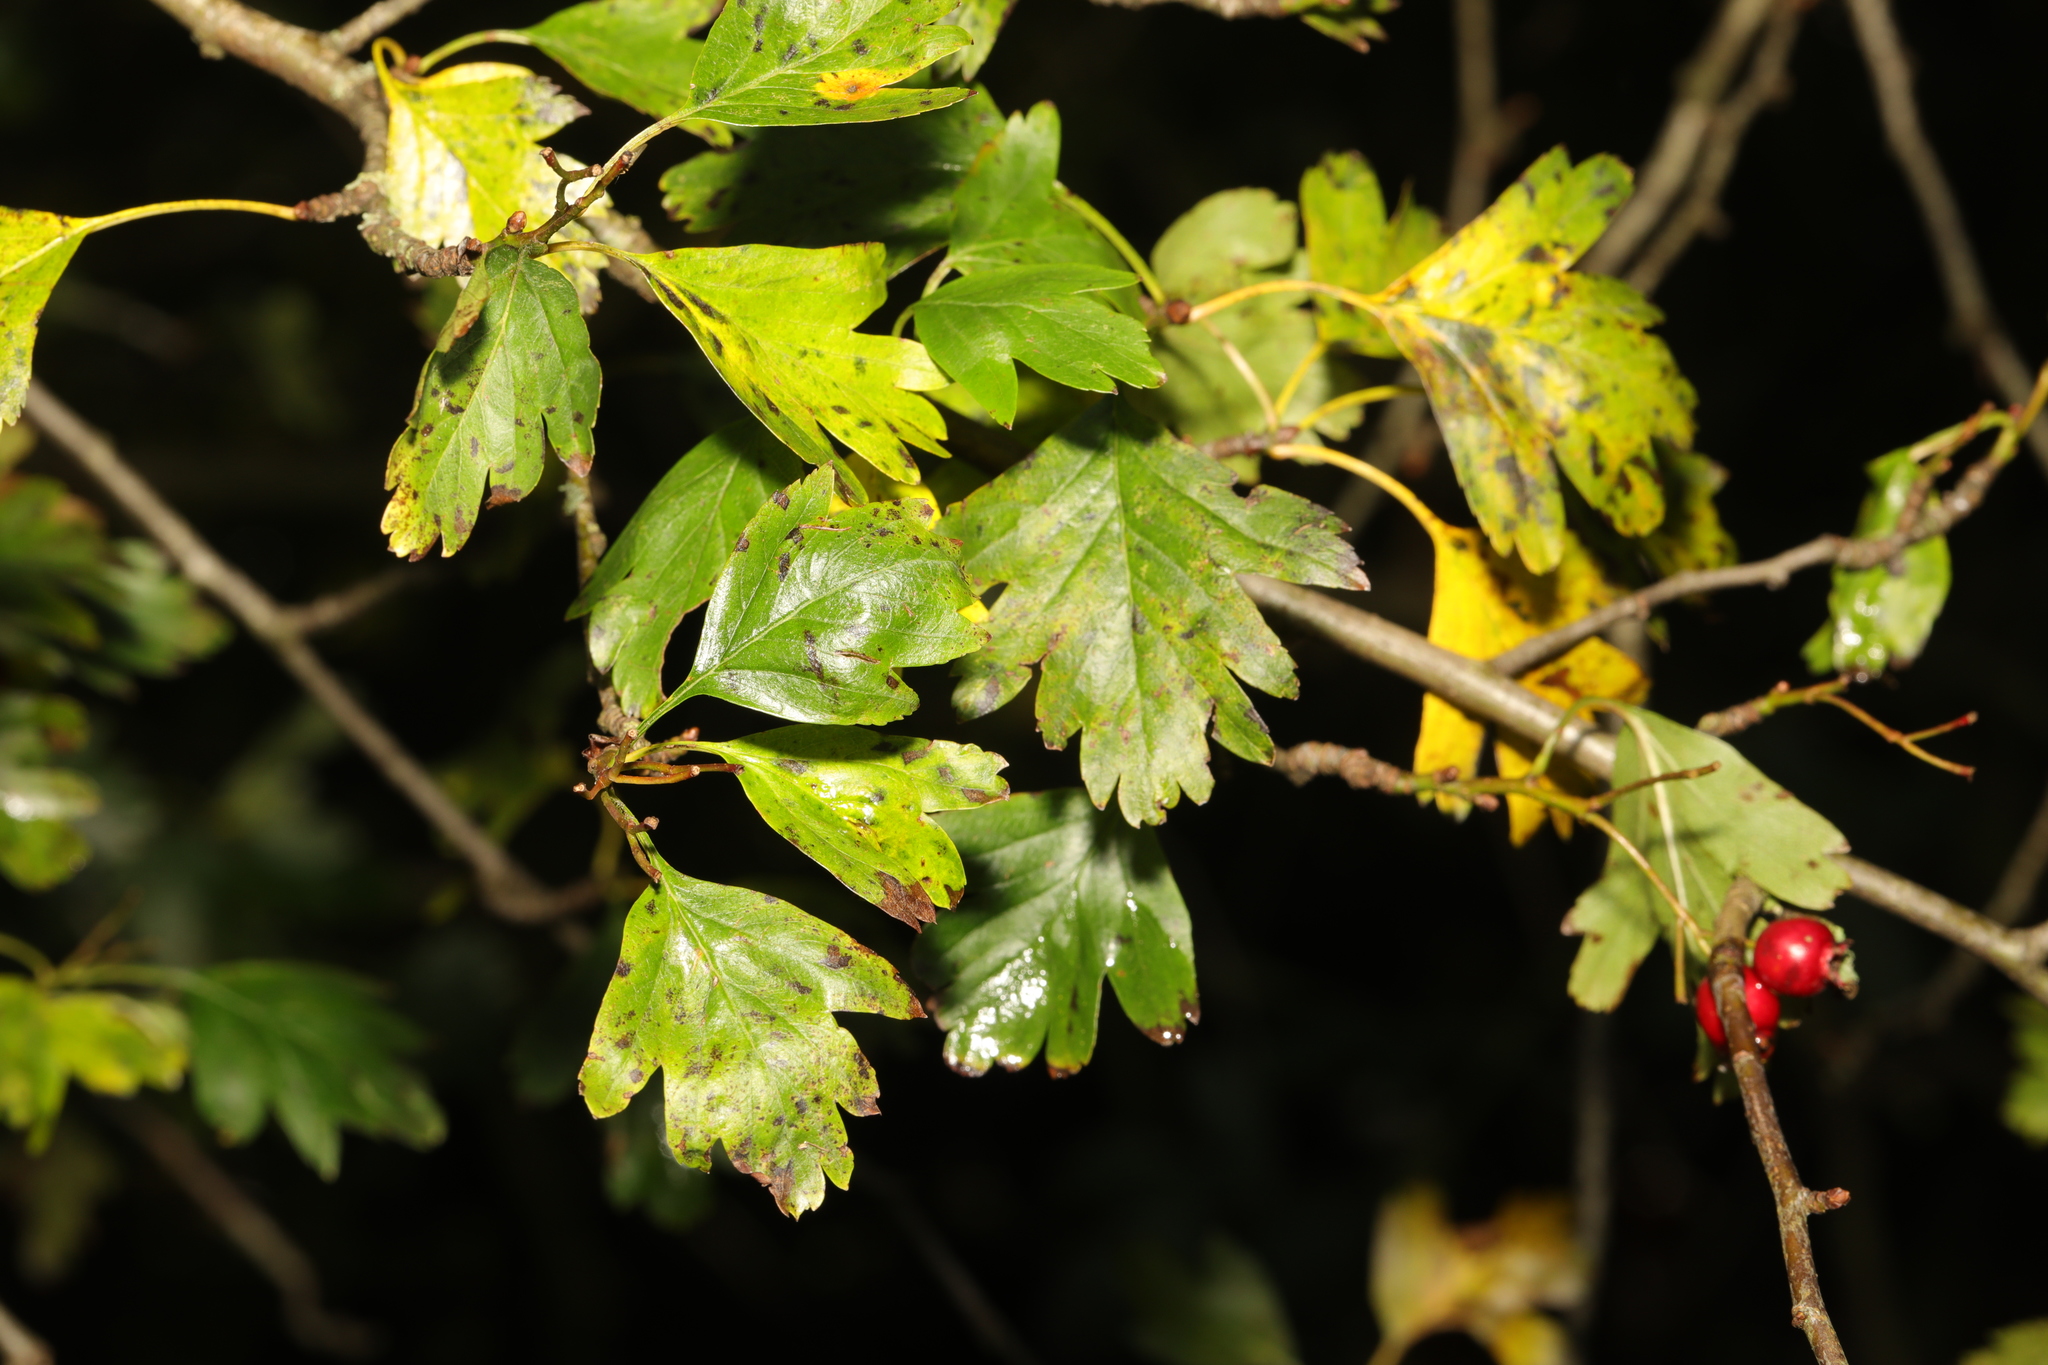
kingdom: Plantae
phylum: Tracheophyta
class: Magnoliopsida
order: Rosales
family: Rosaceae
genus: Crataegus
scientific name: Crataegus monogyna
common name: Hawthorn
